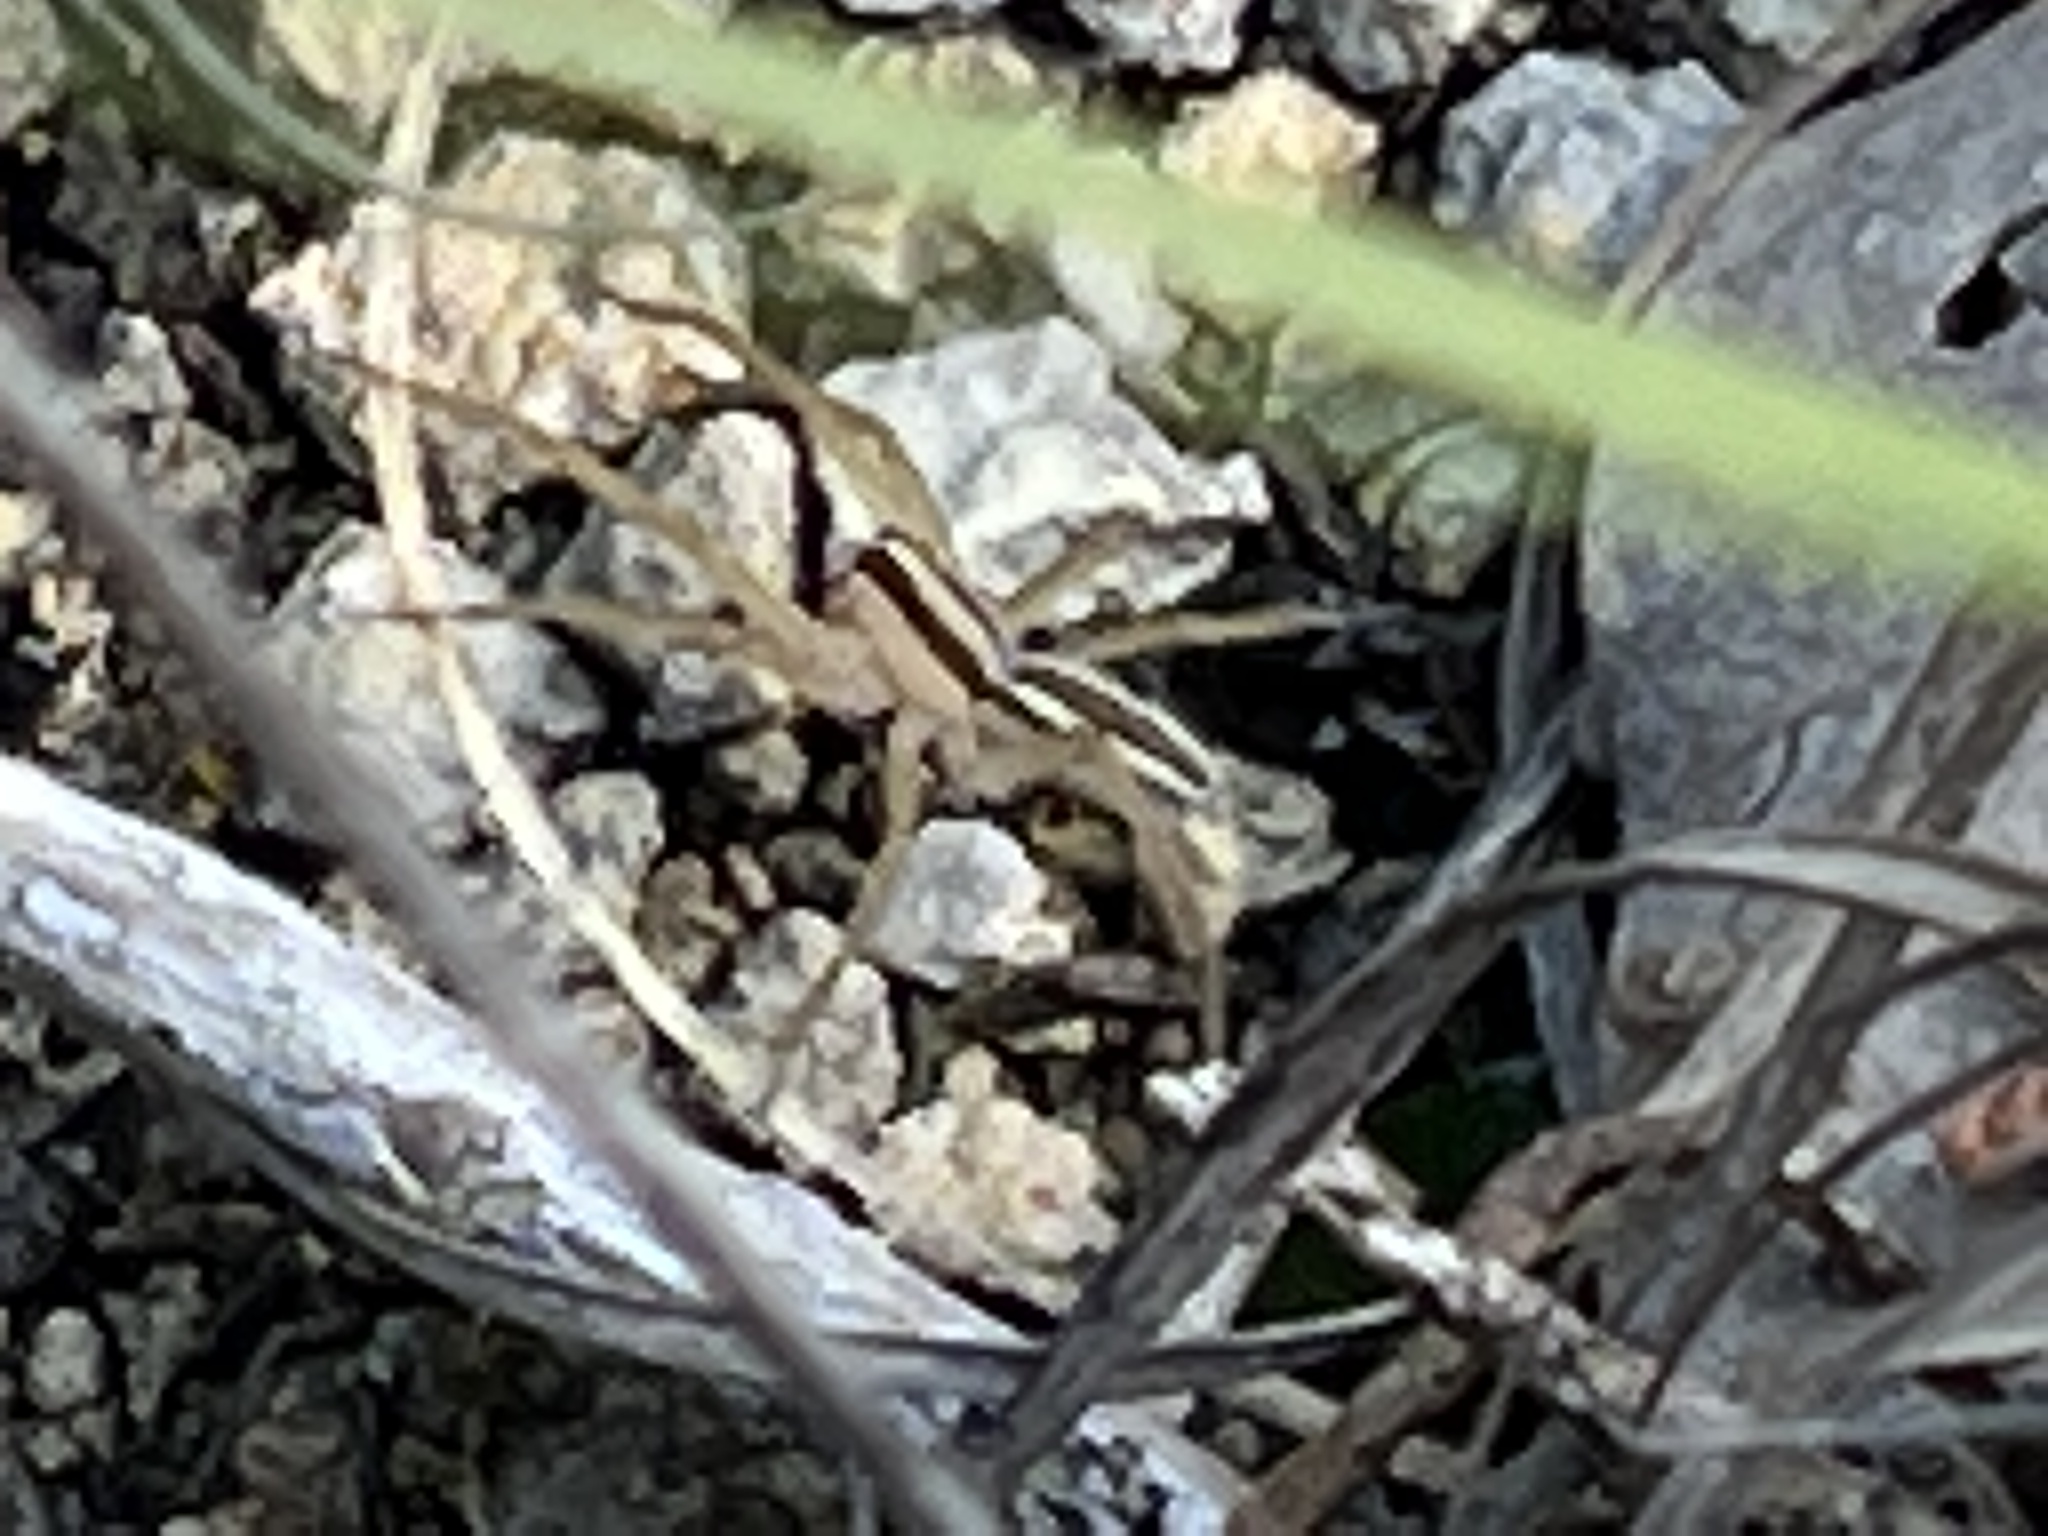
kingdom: Animalia
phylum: Arthropoda
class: Arachnida
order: Araneae
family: Lycosidae
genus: Rabidosa
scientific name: Rabidosa punctulata
